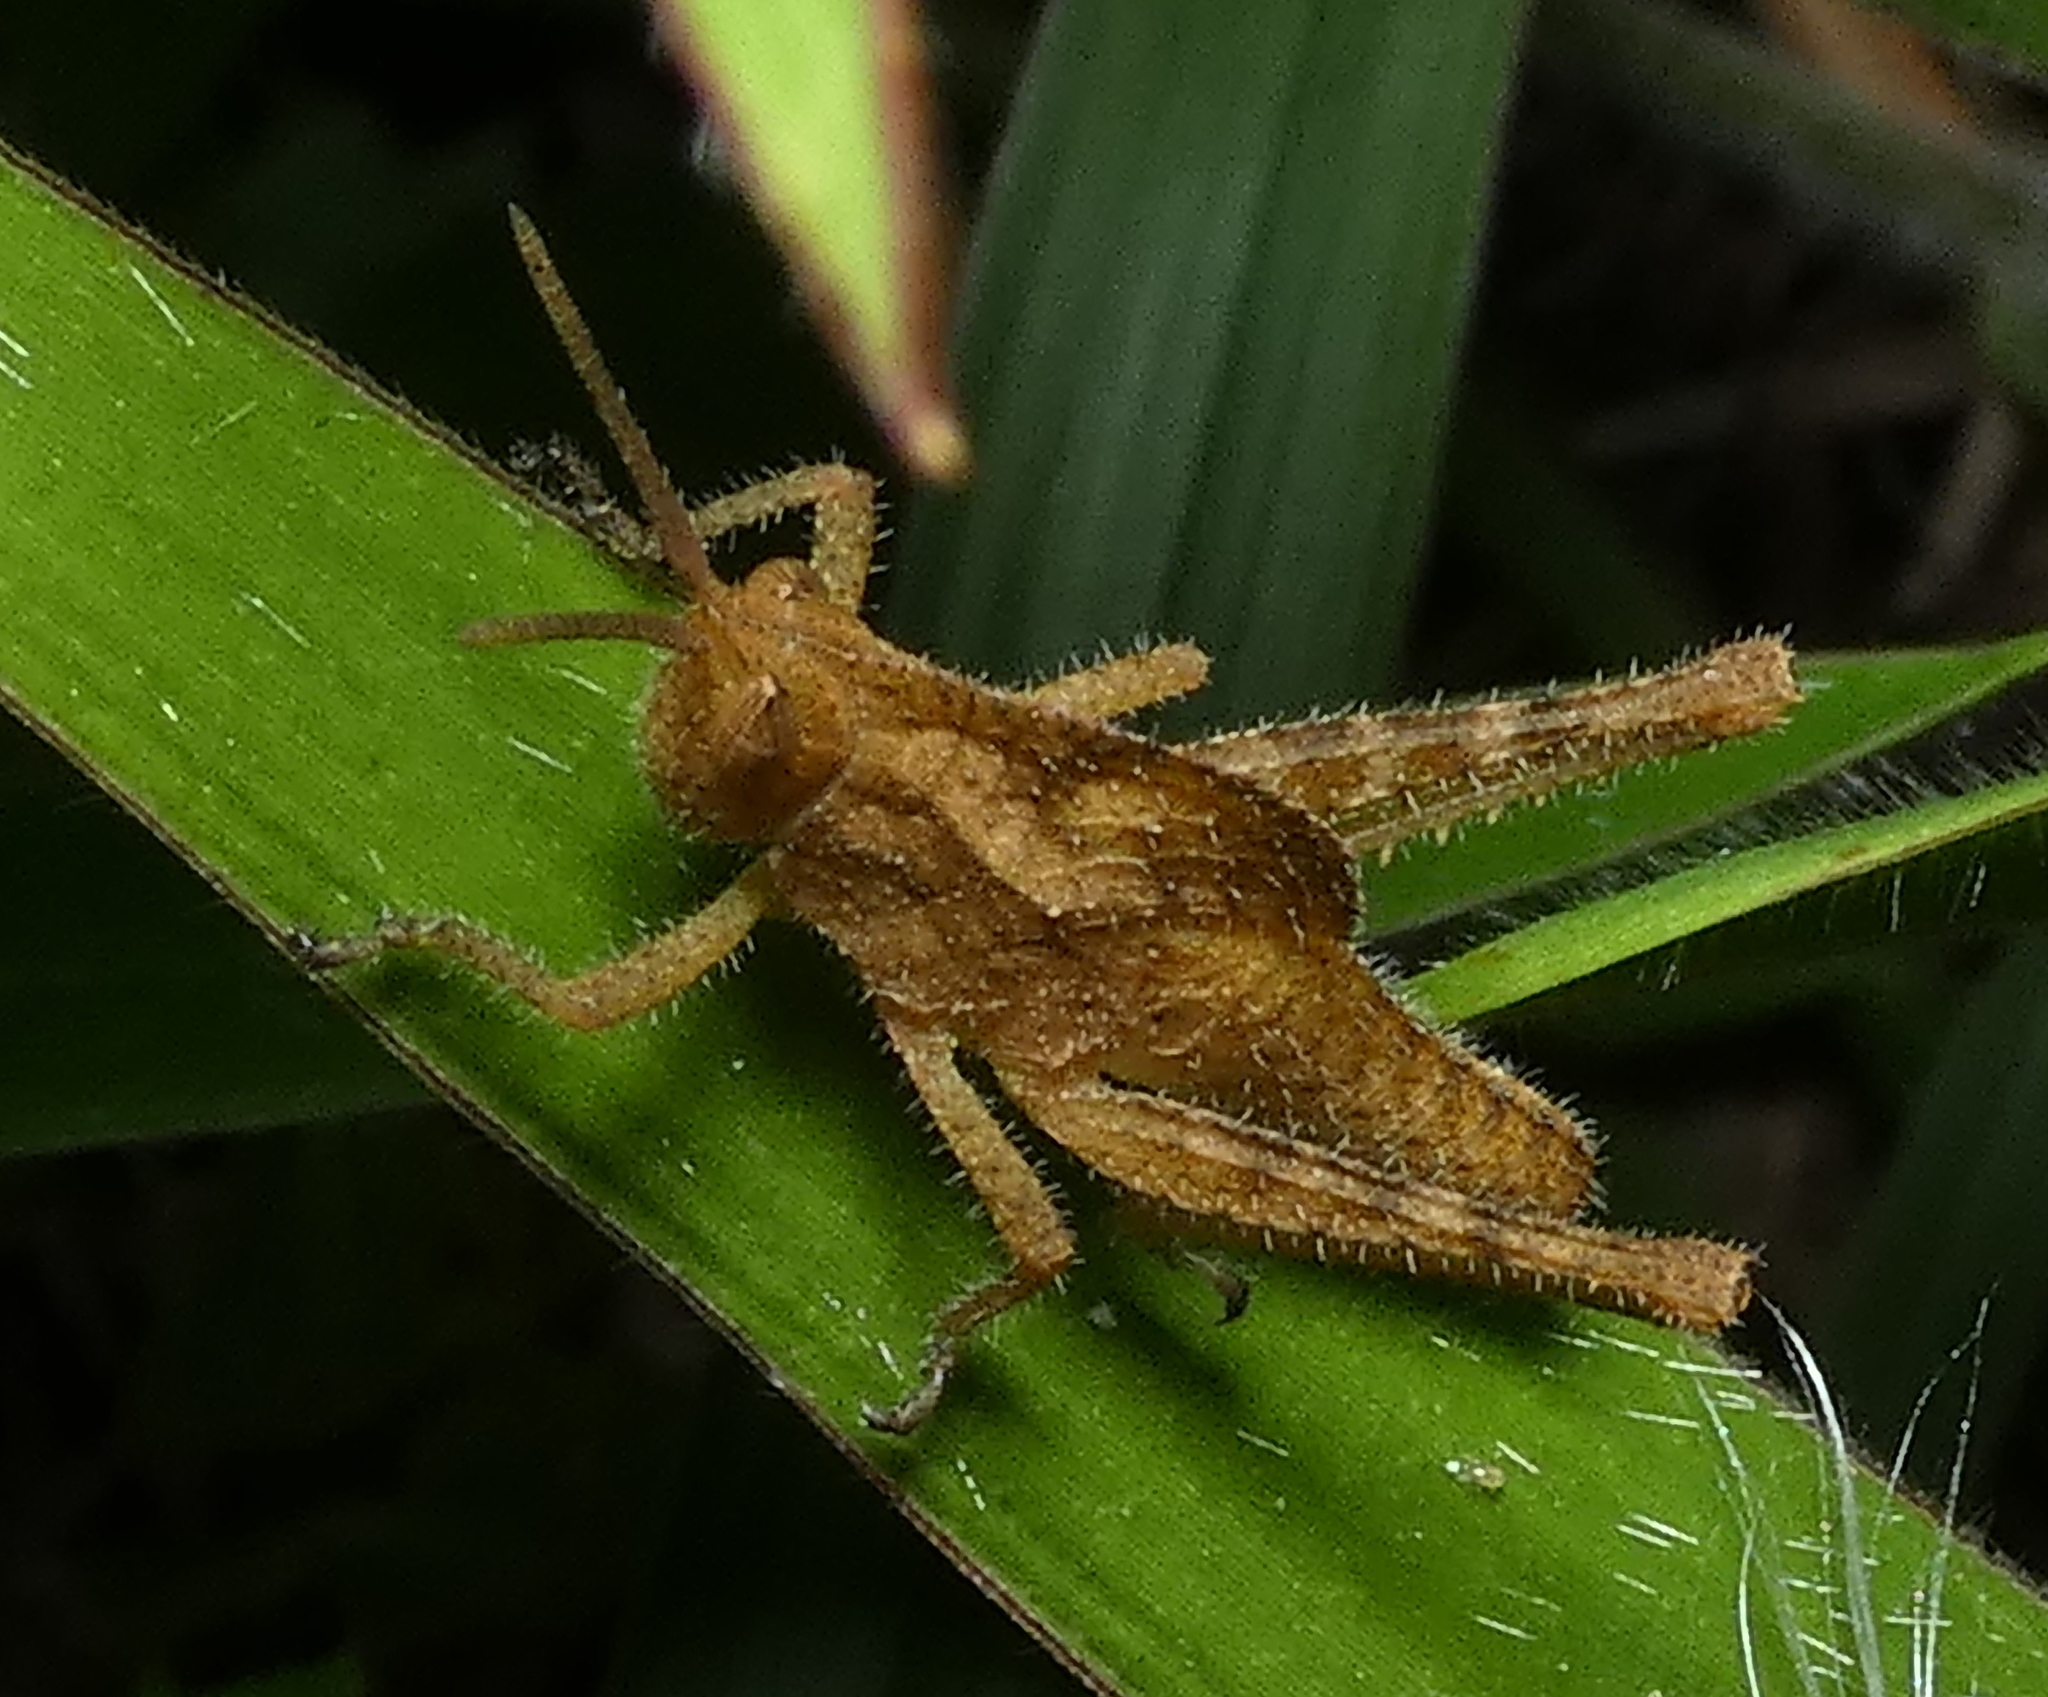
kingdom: Animalia
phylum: Arthropoda
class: Insecta
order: Orthoptera
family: Romaleidae
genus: Xyleus
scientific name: Xyleus discoideus
